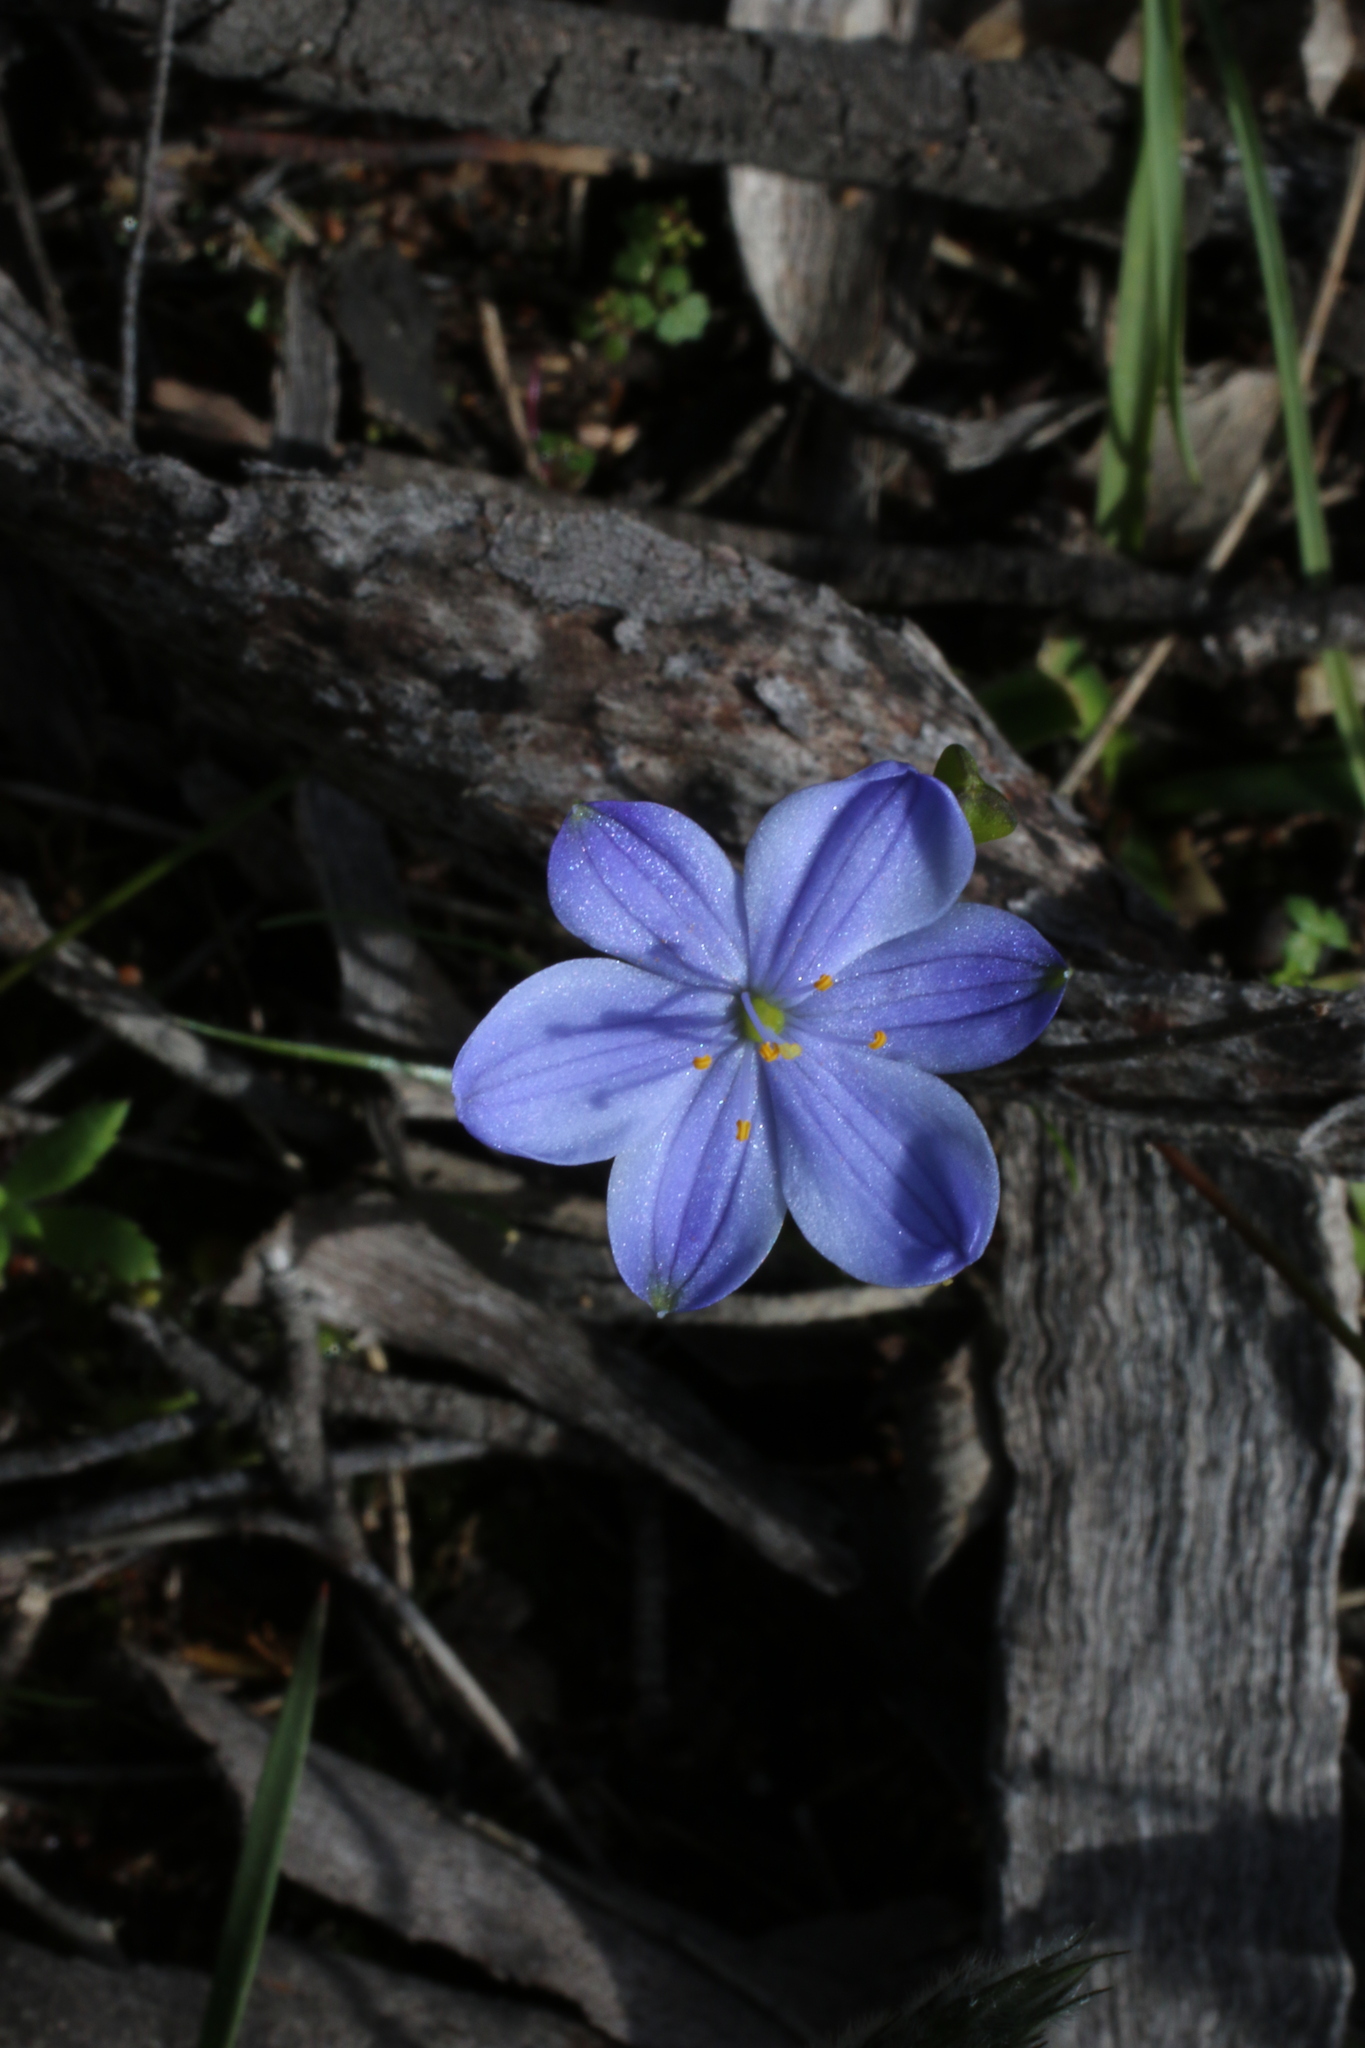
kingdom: Plantae
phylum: Tracheophyta
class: Liliopsida
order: Asparagales
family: Asphodelaceae
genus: Chamaescilla
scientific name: Chamaescilla corymbosa
